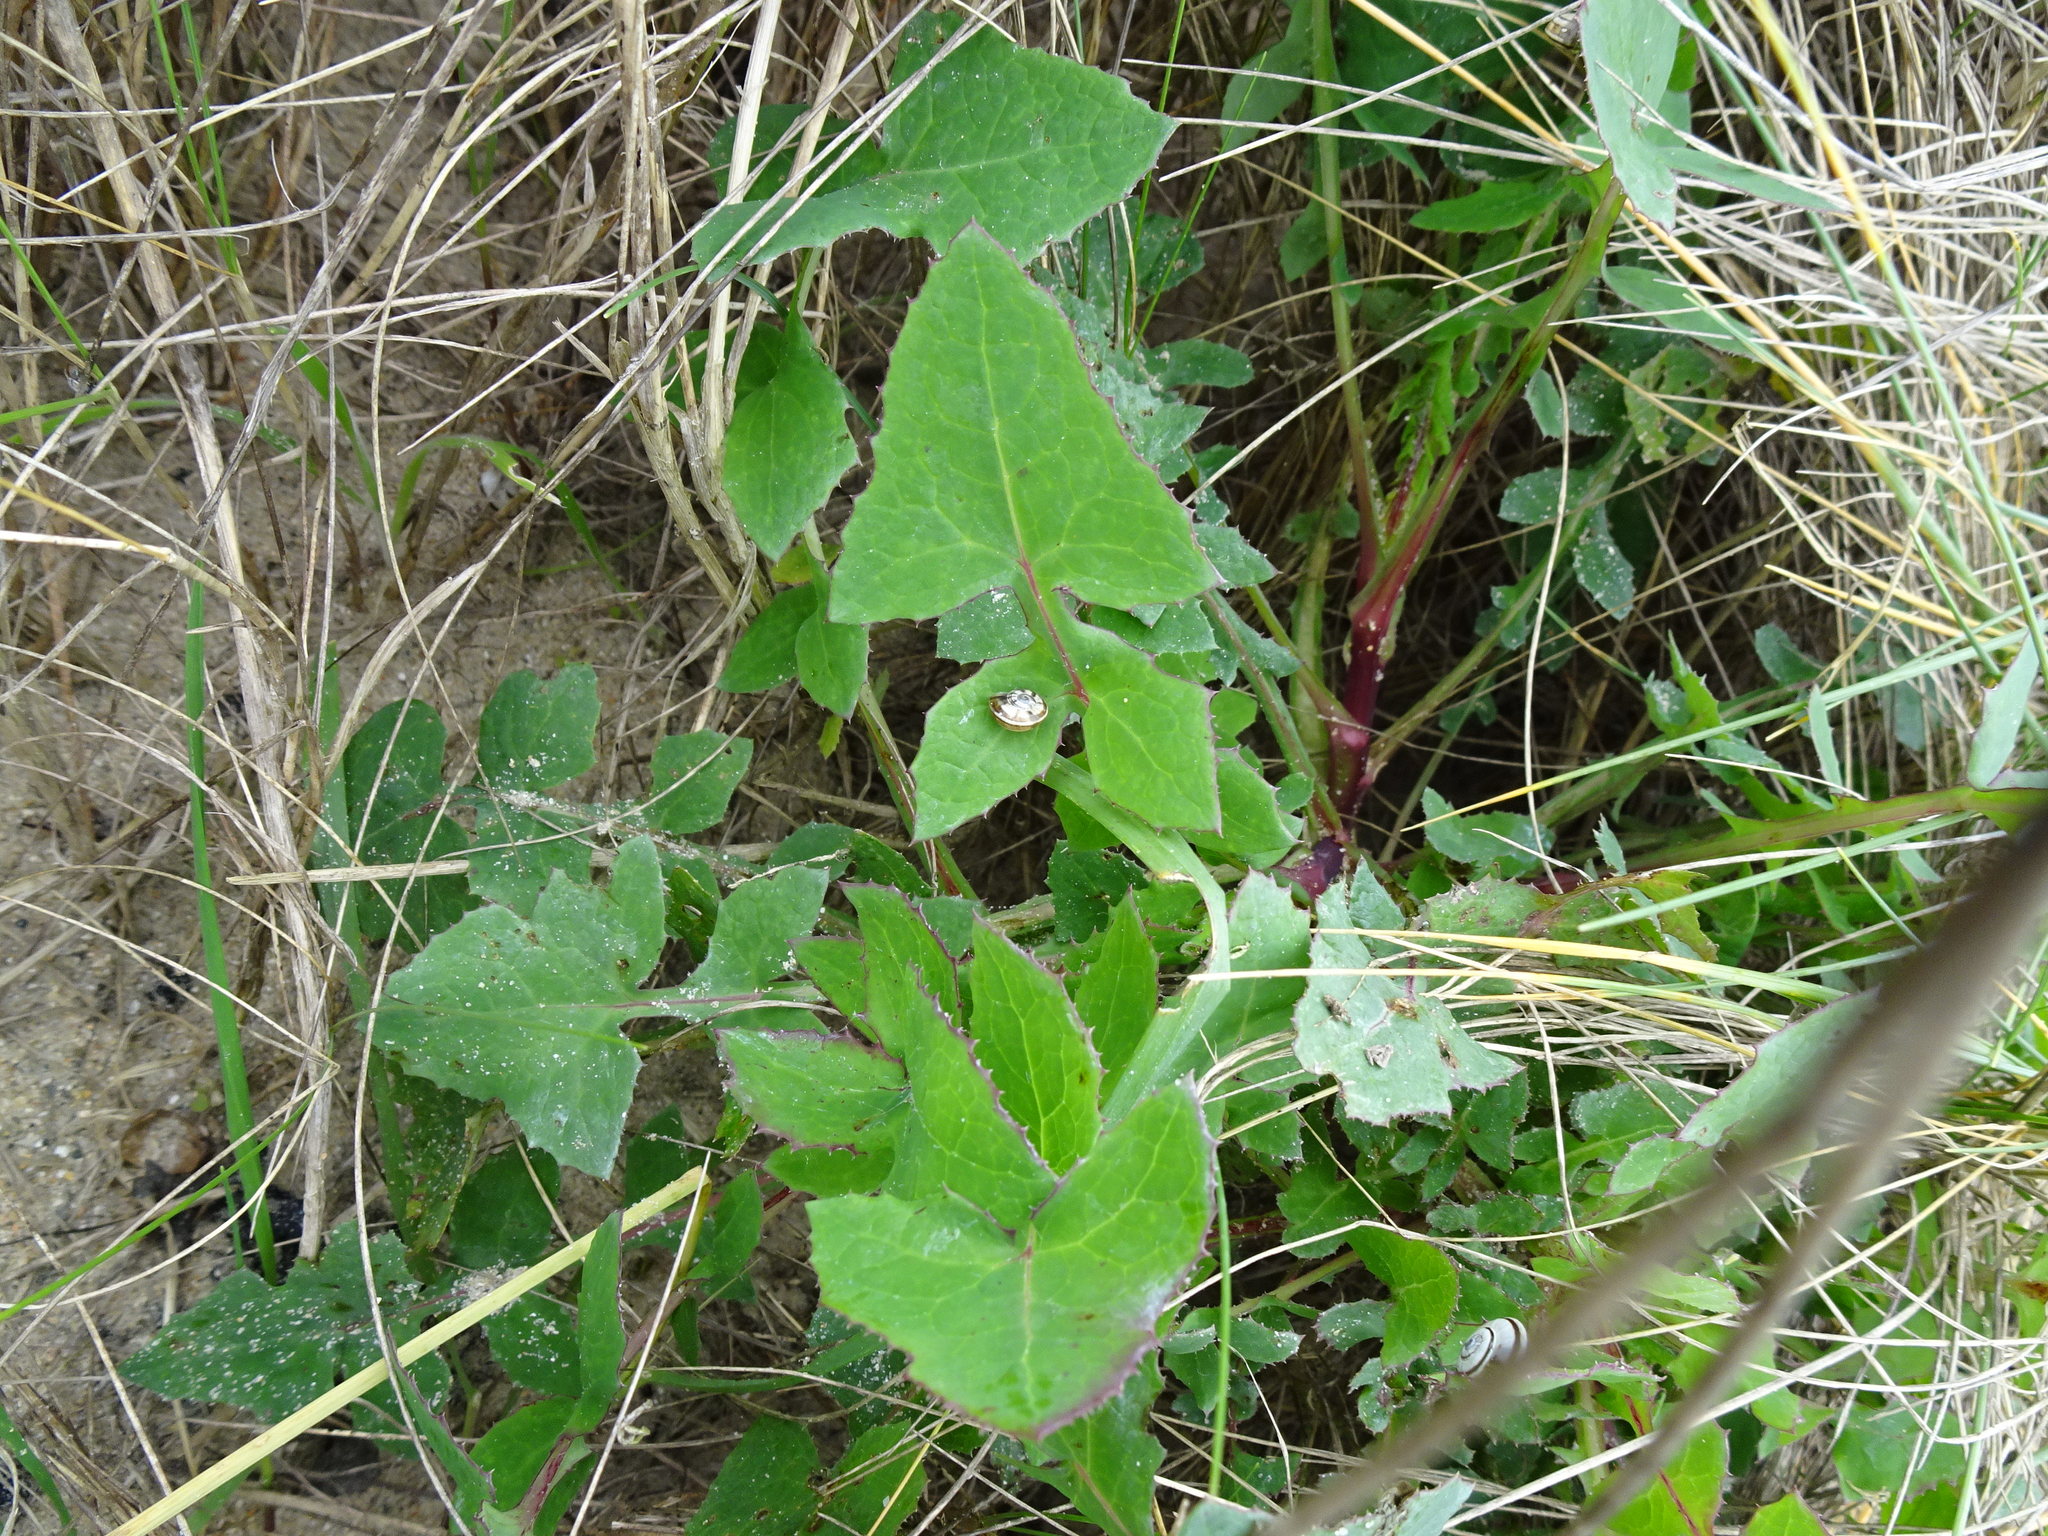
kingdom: Plantae
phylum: Tracheophyta
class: Magnoliopsida
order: Asterales
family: Asteraceae
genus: Sonchus
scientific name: Sonchus oleraceus
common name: Common sowthistle
